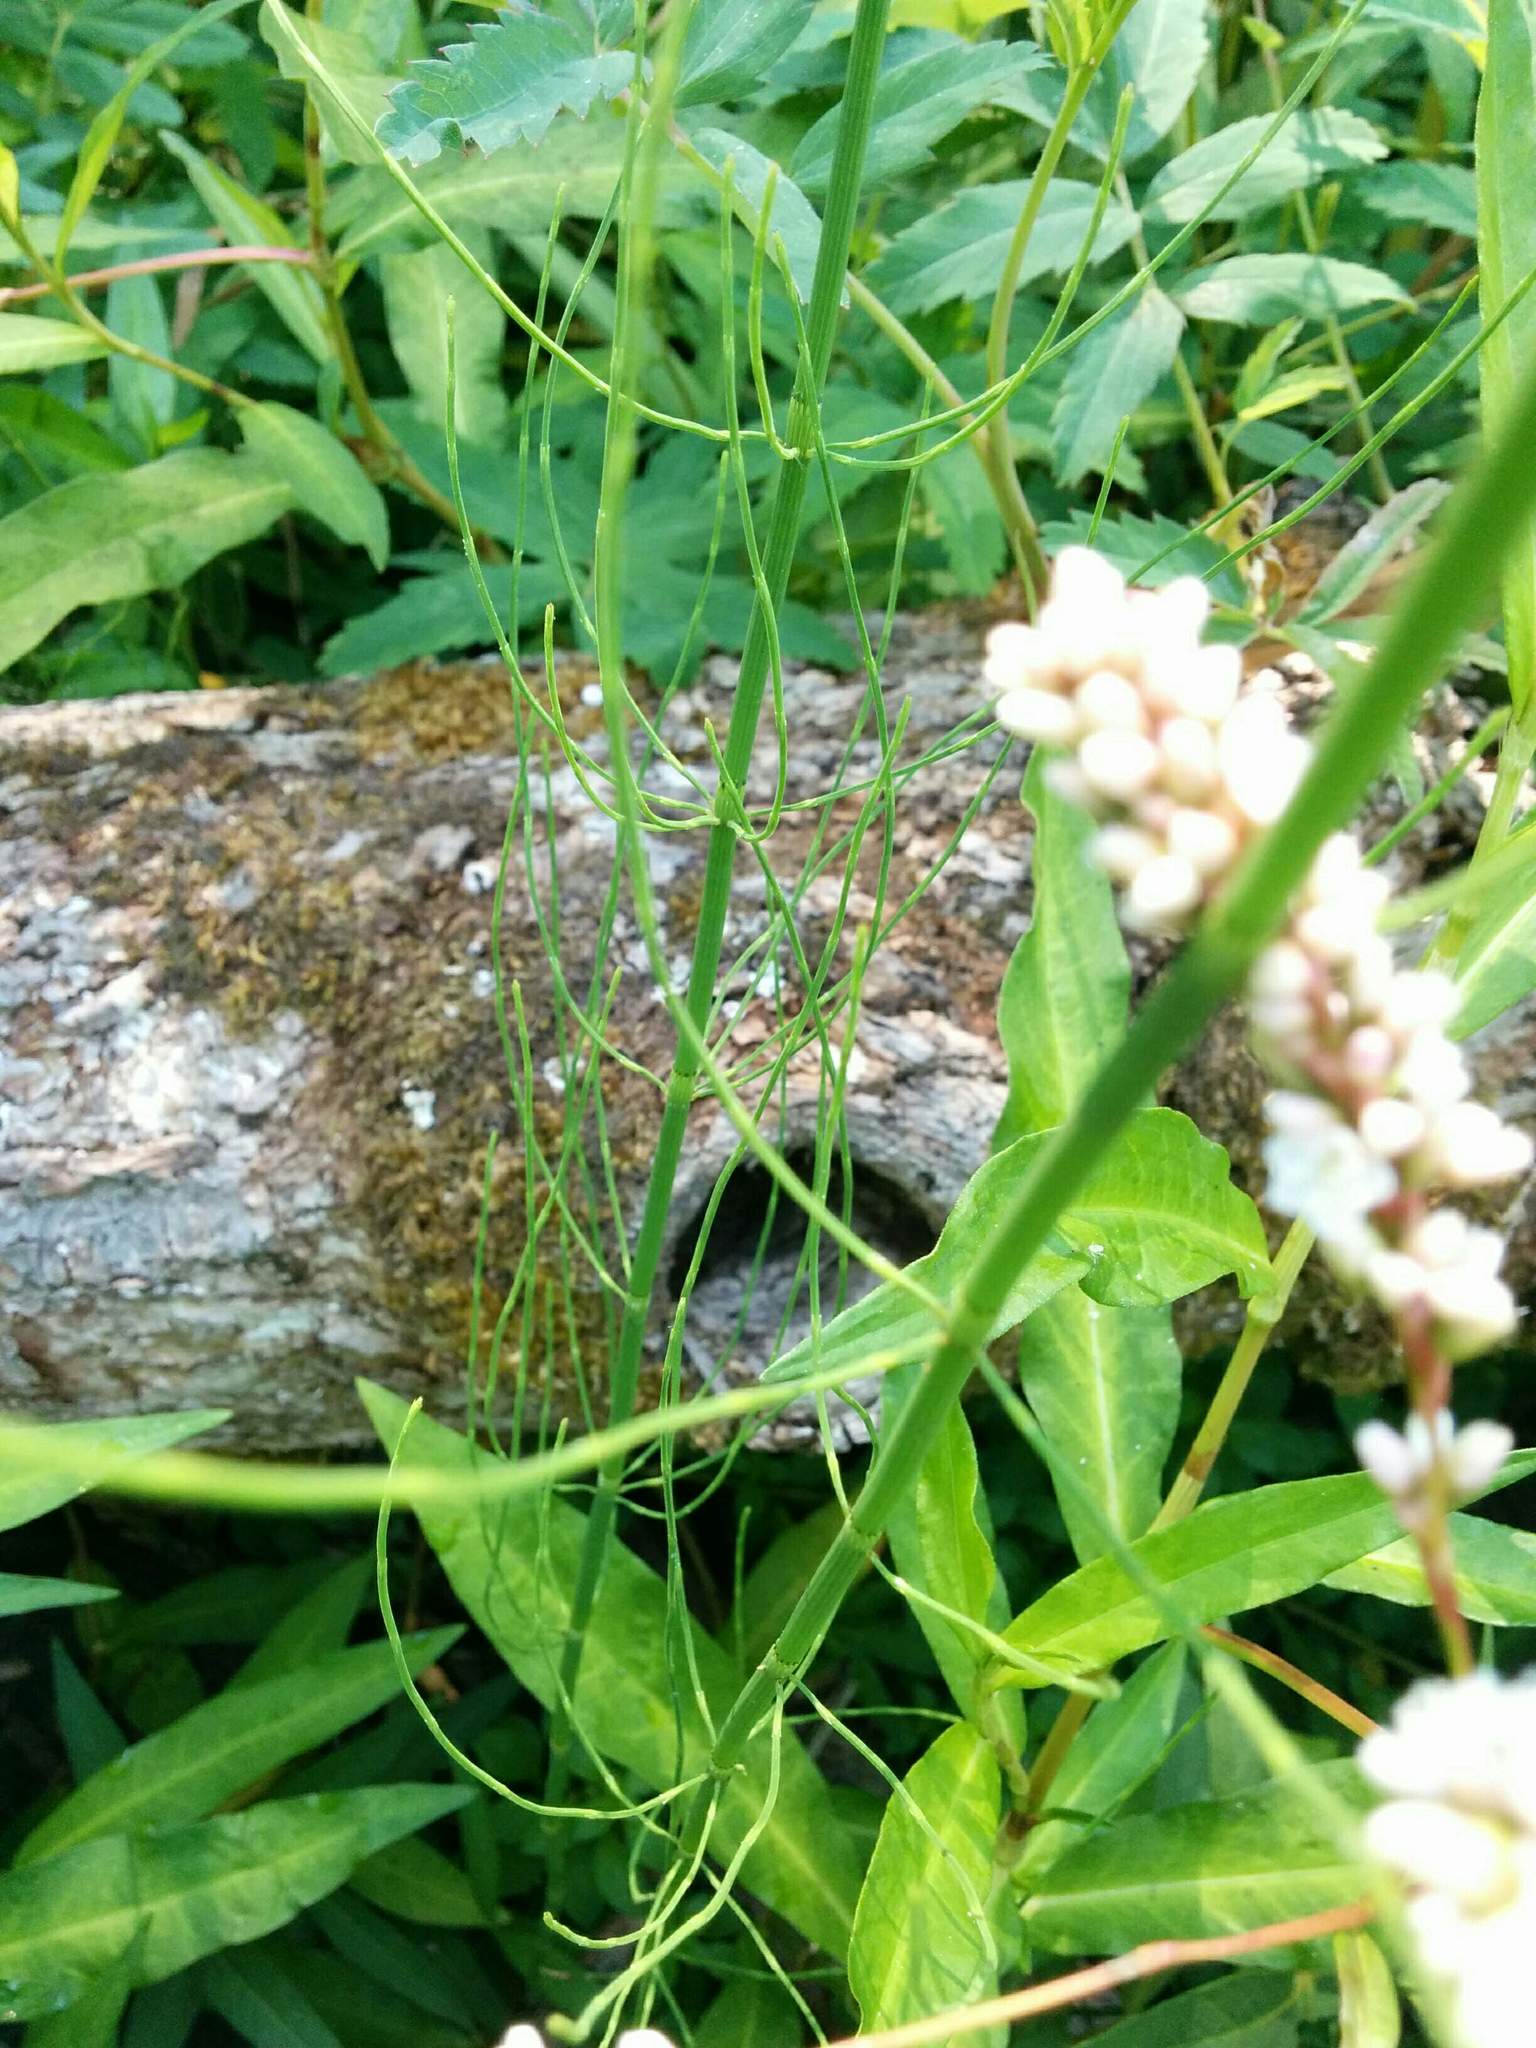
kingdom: Plantae
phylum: Tracheophyta
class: Polypodiopsida
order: Equisetales
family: Equisetaceae
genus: Equisetum
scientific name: Equisetum fluviatile
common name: Water horsetail
